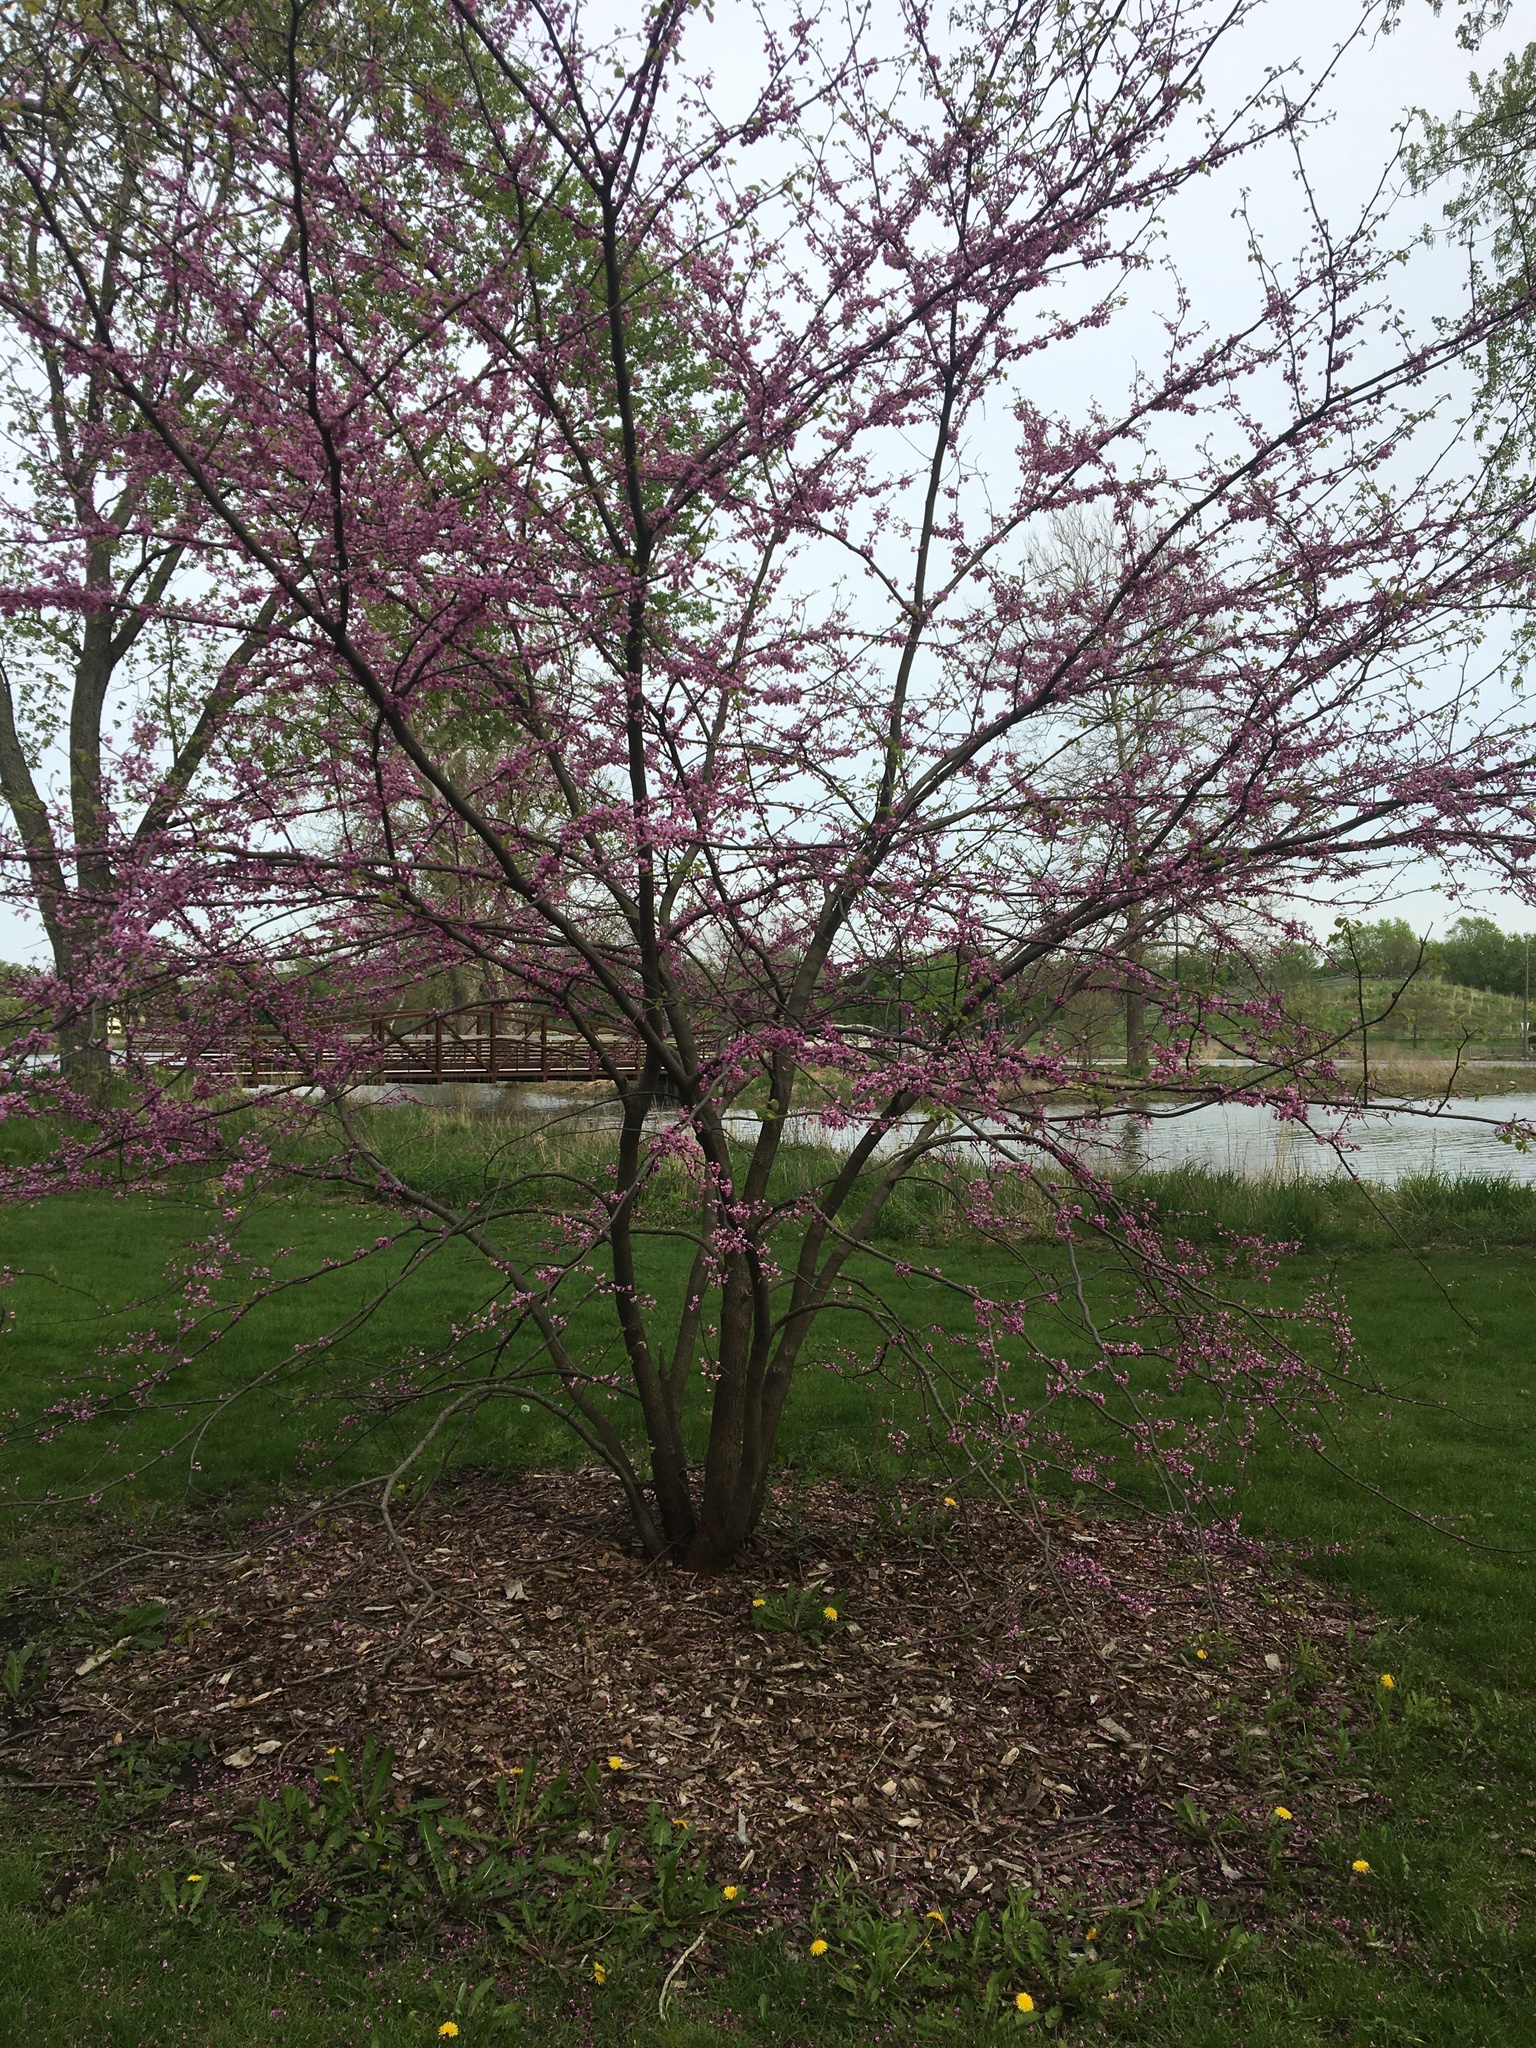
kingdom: Plantae
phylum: Tracheophyta
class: Magnoliopsida
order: Fabales
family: Fabaceae
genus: Cercis
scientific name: Cercis canadensis
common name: Eastern redbud
